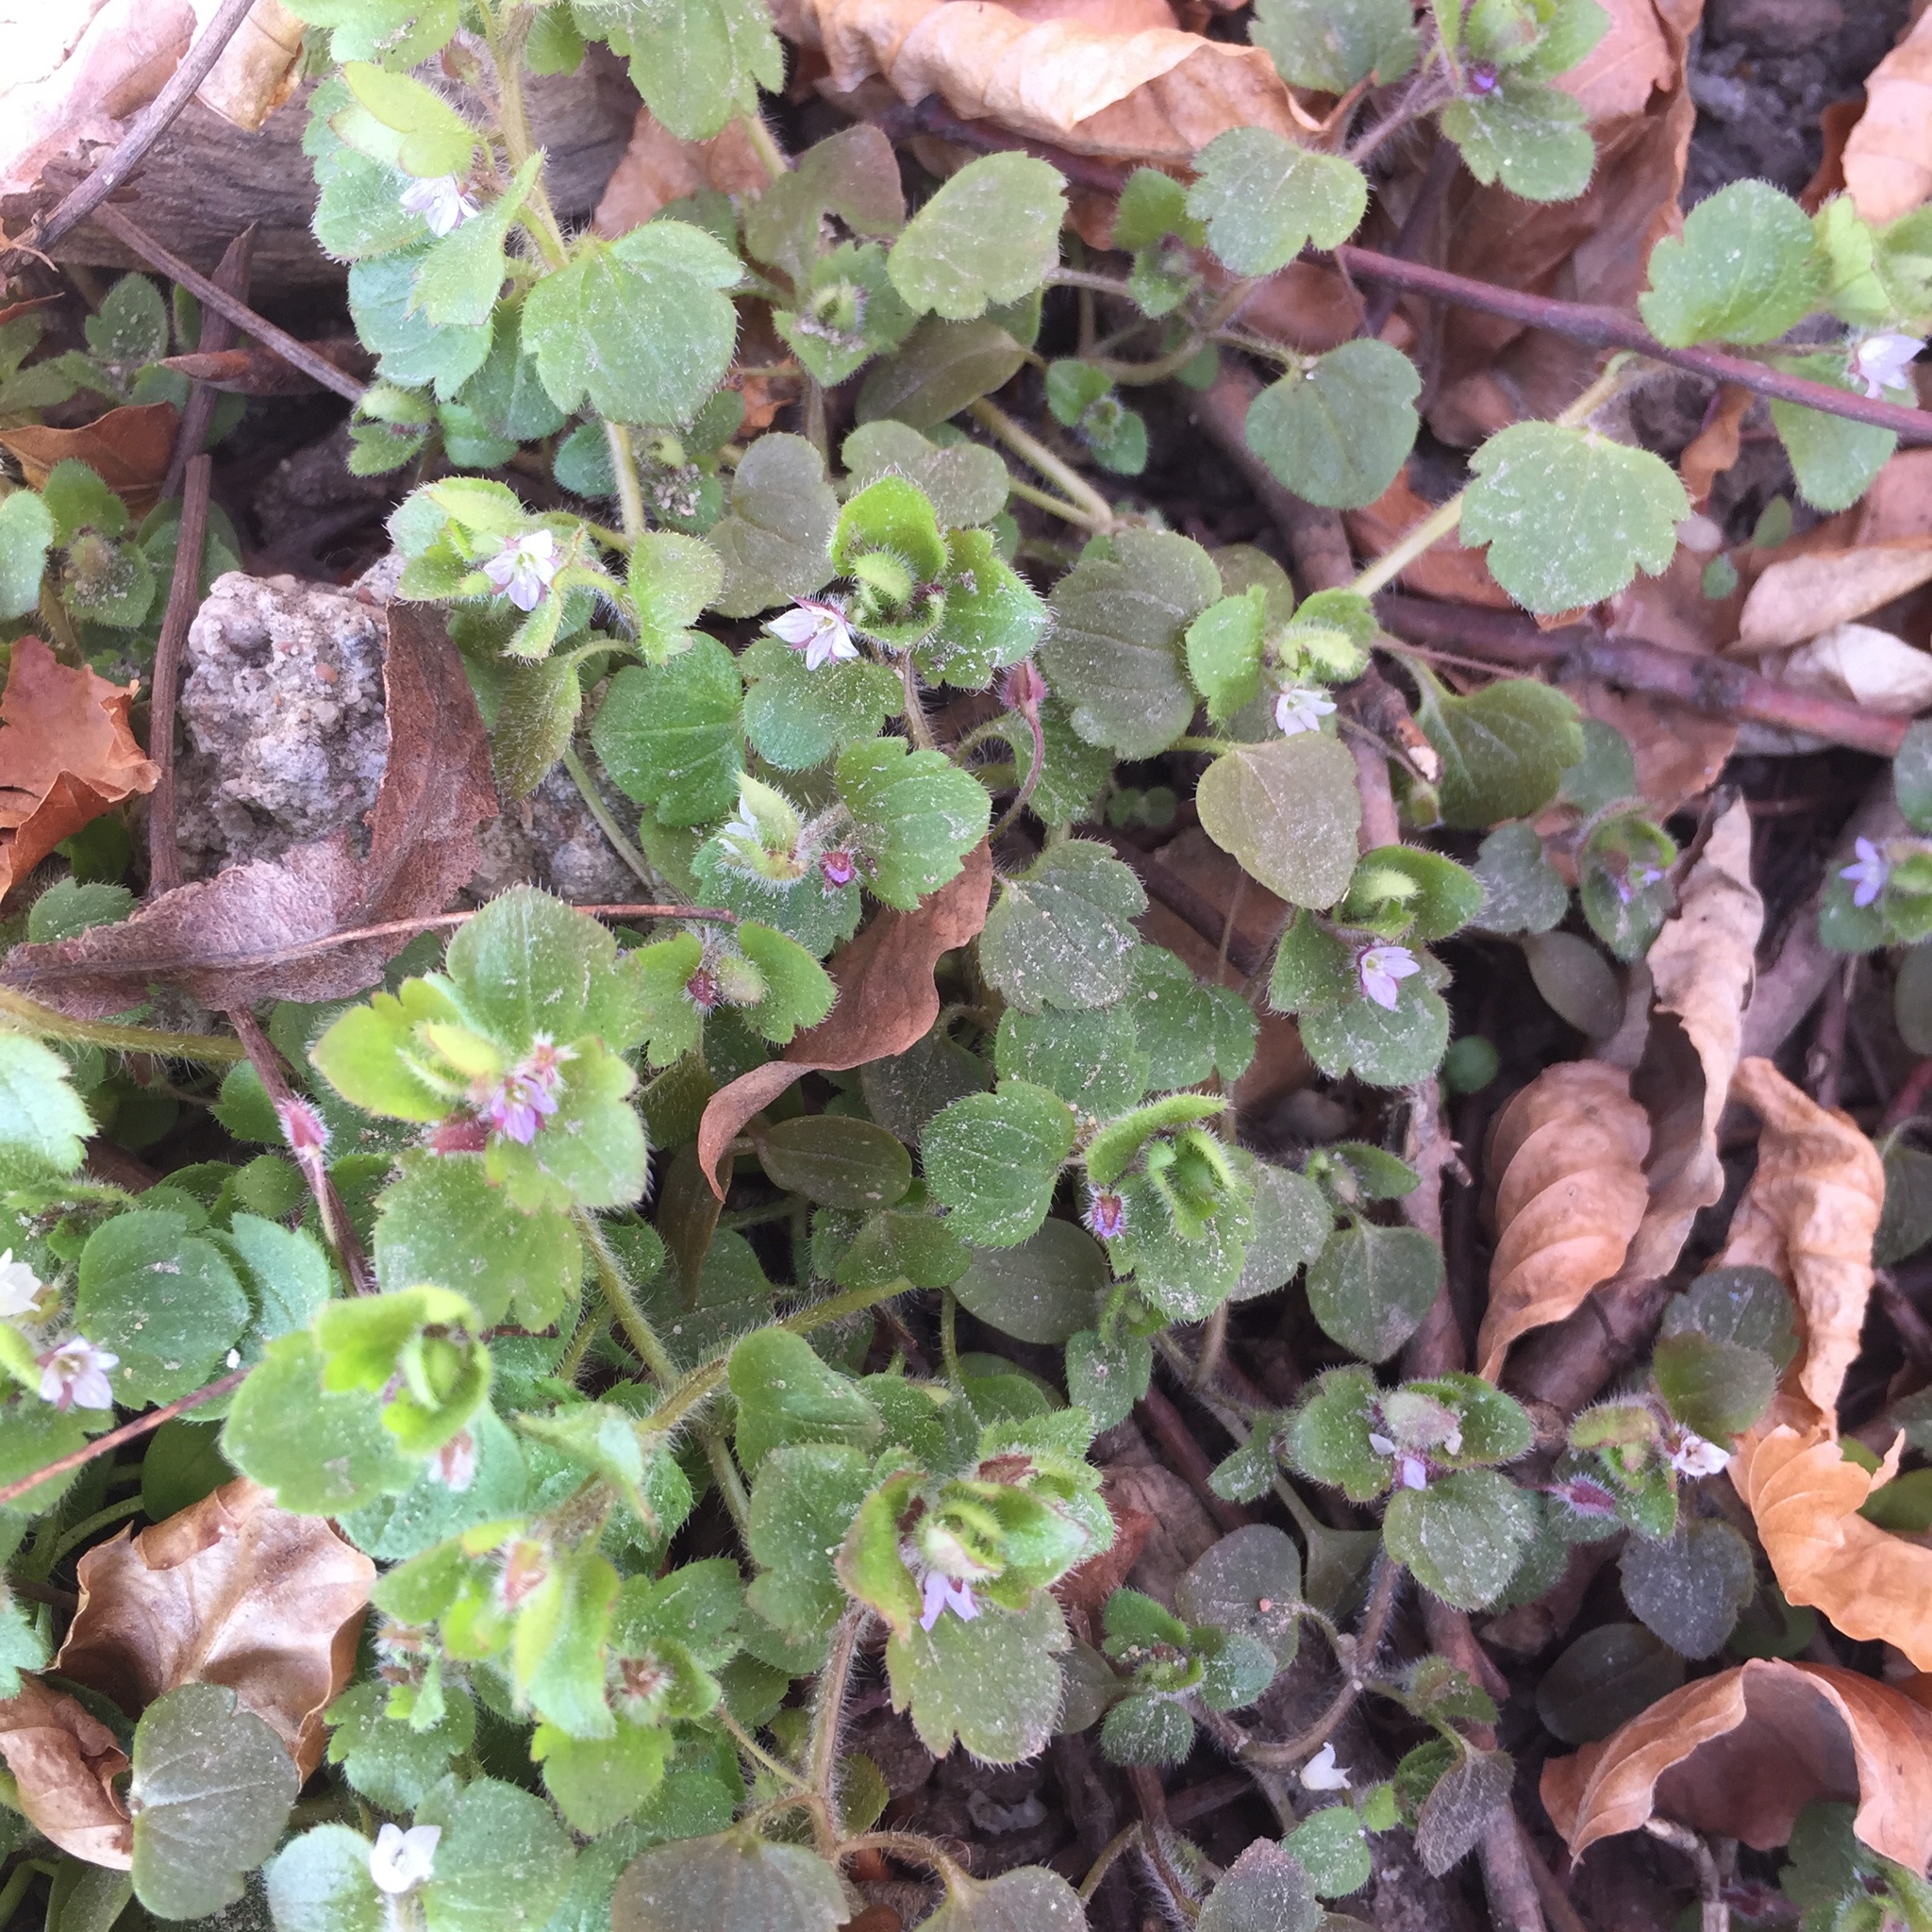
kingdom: Plantae
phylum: Tracheophyta
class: Magnoliopsida
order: Lamiales
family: Plantaginaceae
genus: Veronica
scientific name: Veronica sublobata
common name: False ivy-leaved speedwell
